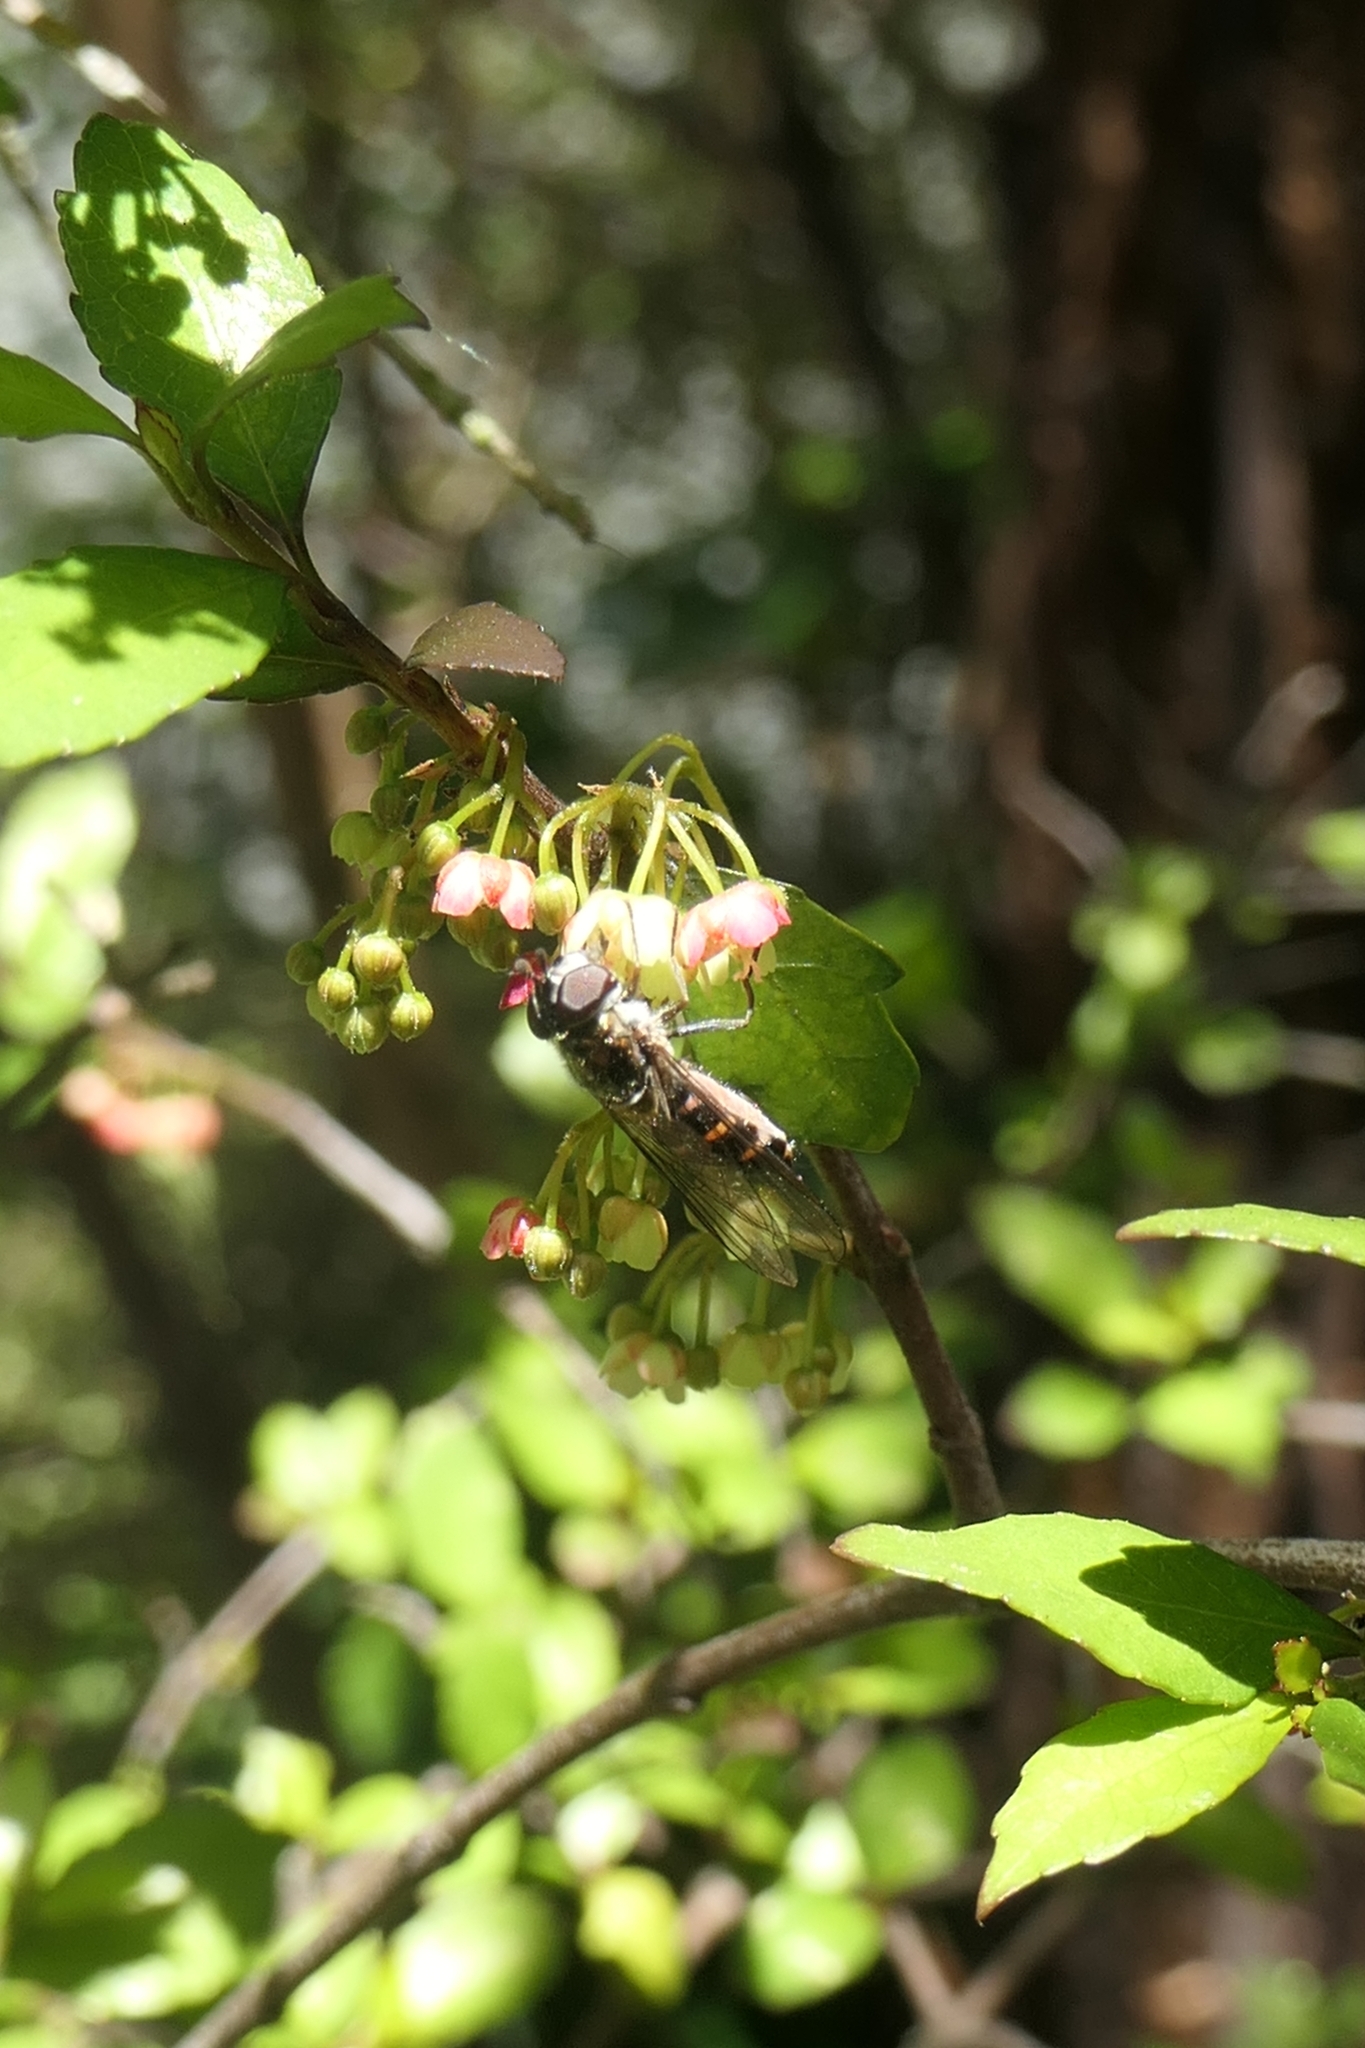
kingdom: Animalia
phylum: Arthropoda
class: Insecta
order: Diptera
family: Syrphidae
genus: Melangyna
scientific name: Melangyna novaezelandiae
